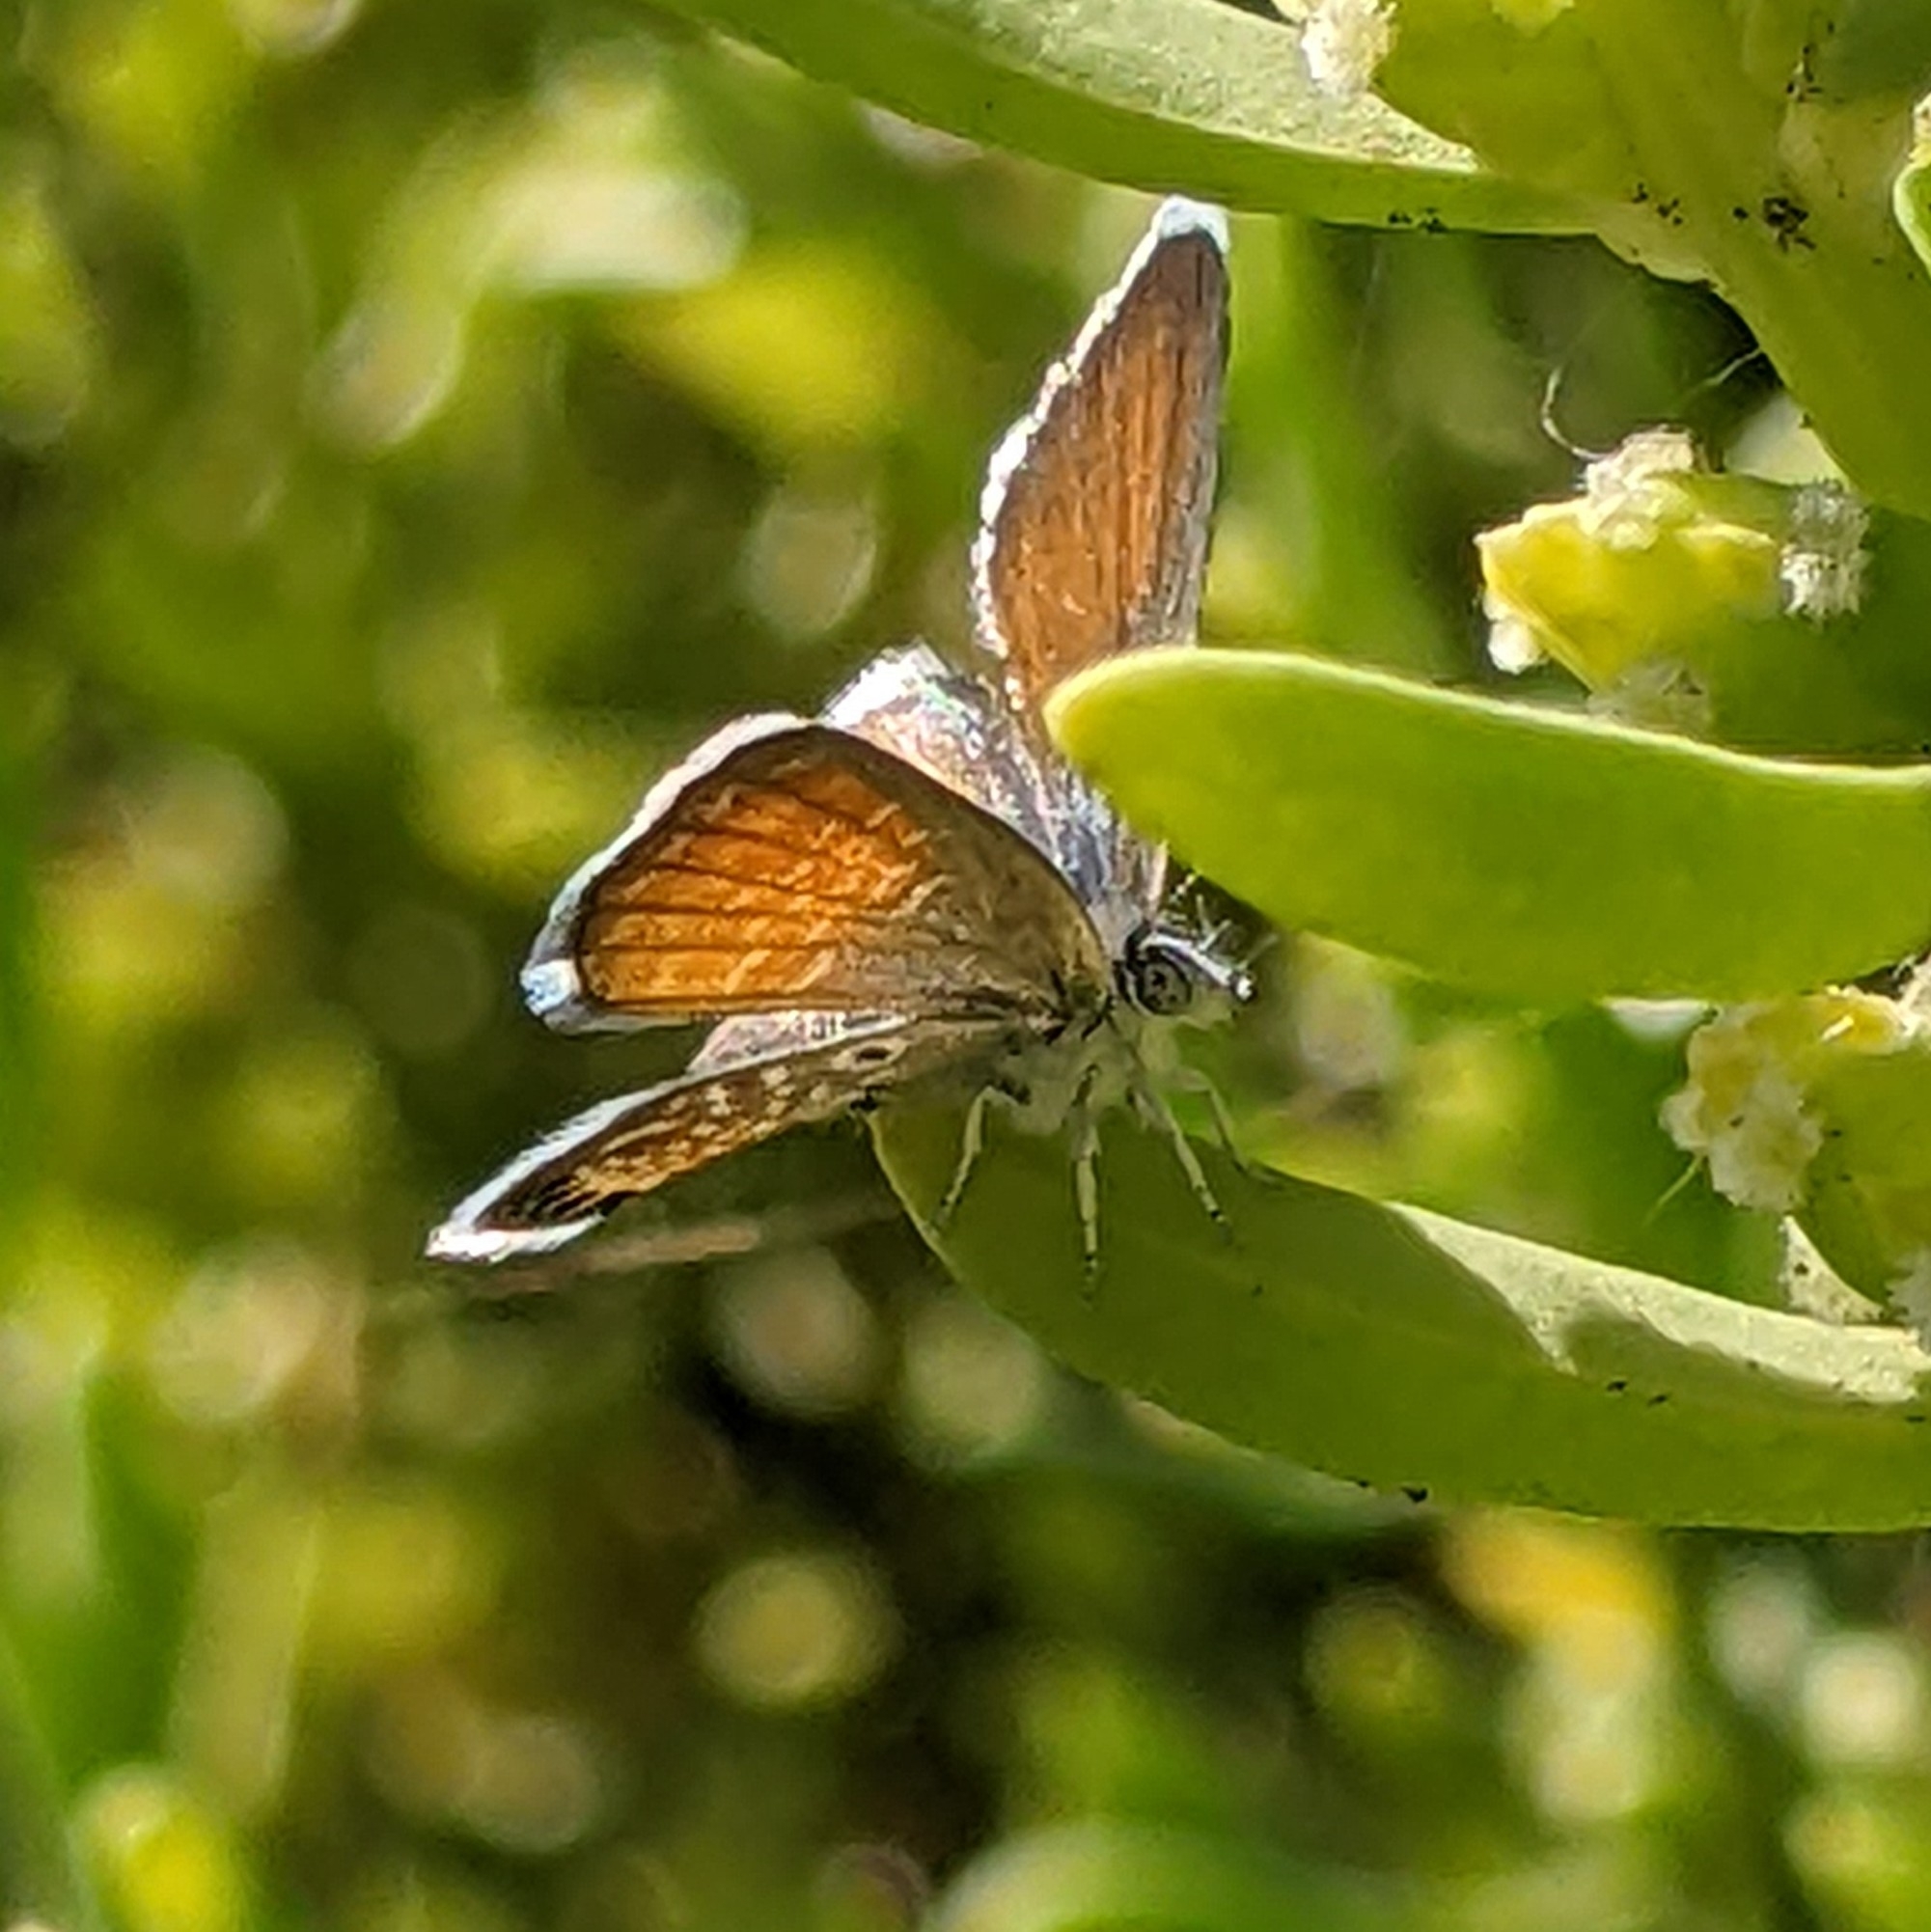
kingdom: Animalia
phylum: Arthropoda
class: Insecta
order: Lepidoptera
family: Lycaenidae
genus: Brephidium
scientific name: Brephidium exilis
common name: Pygmy blue
